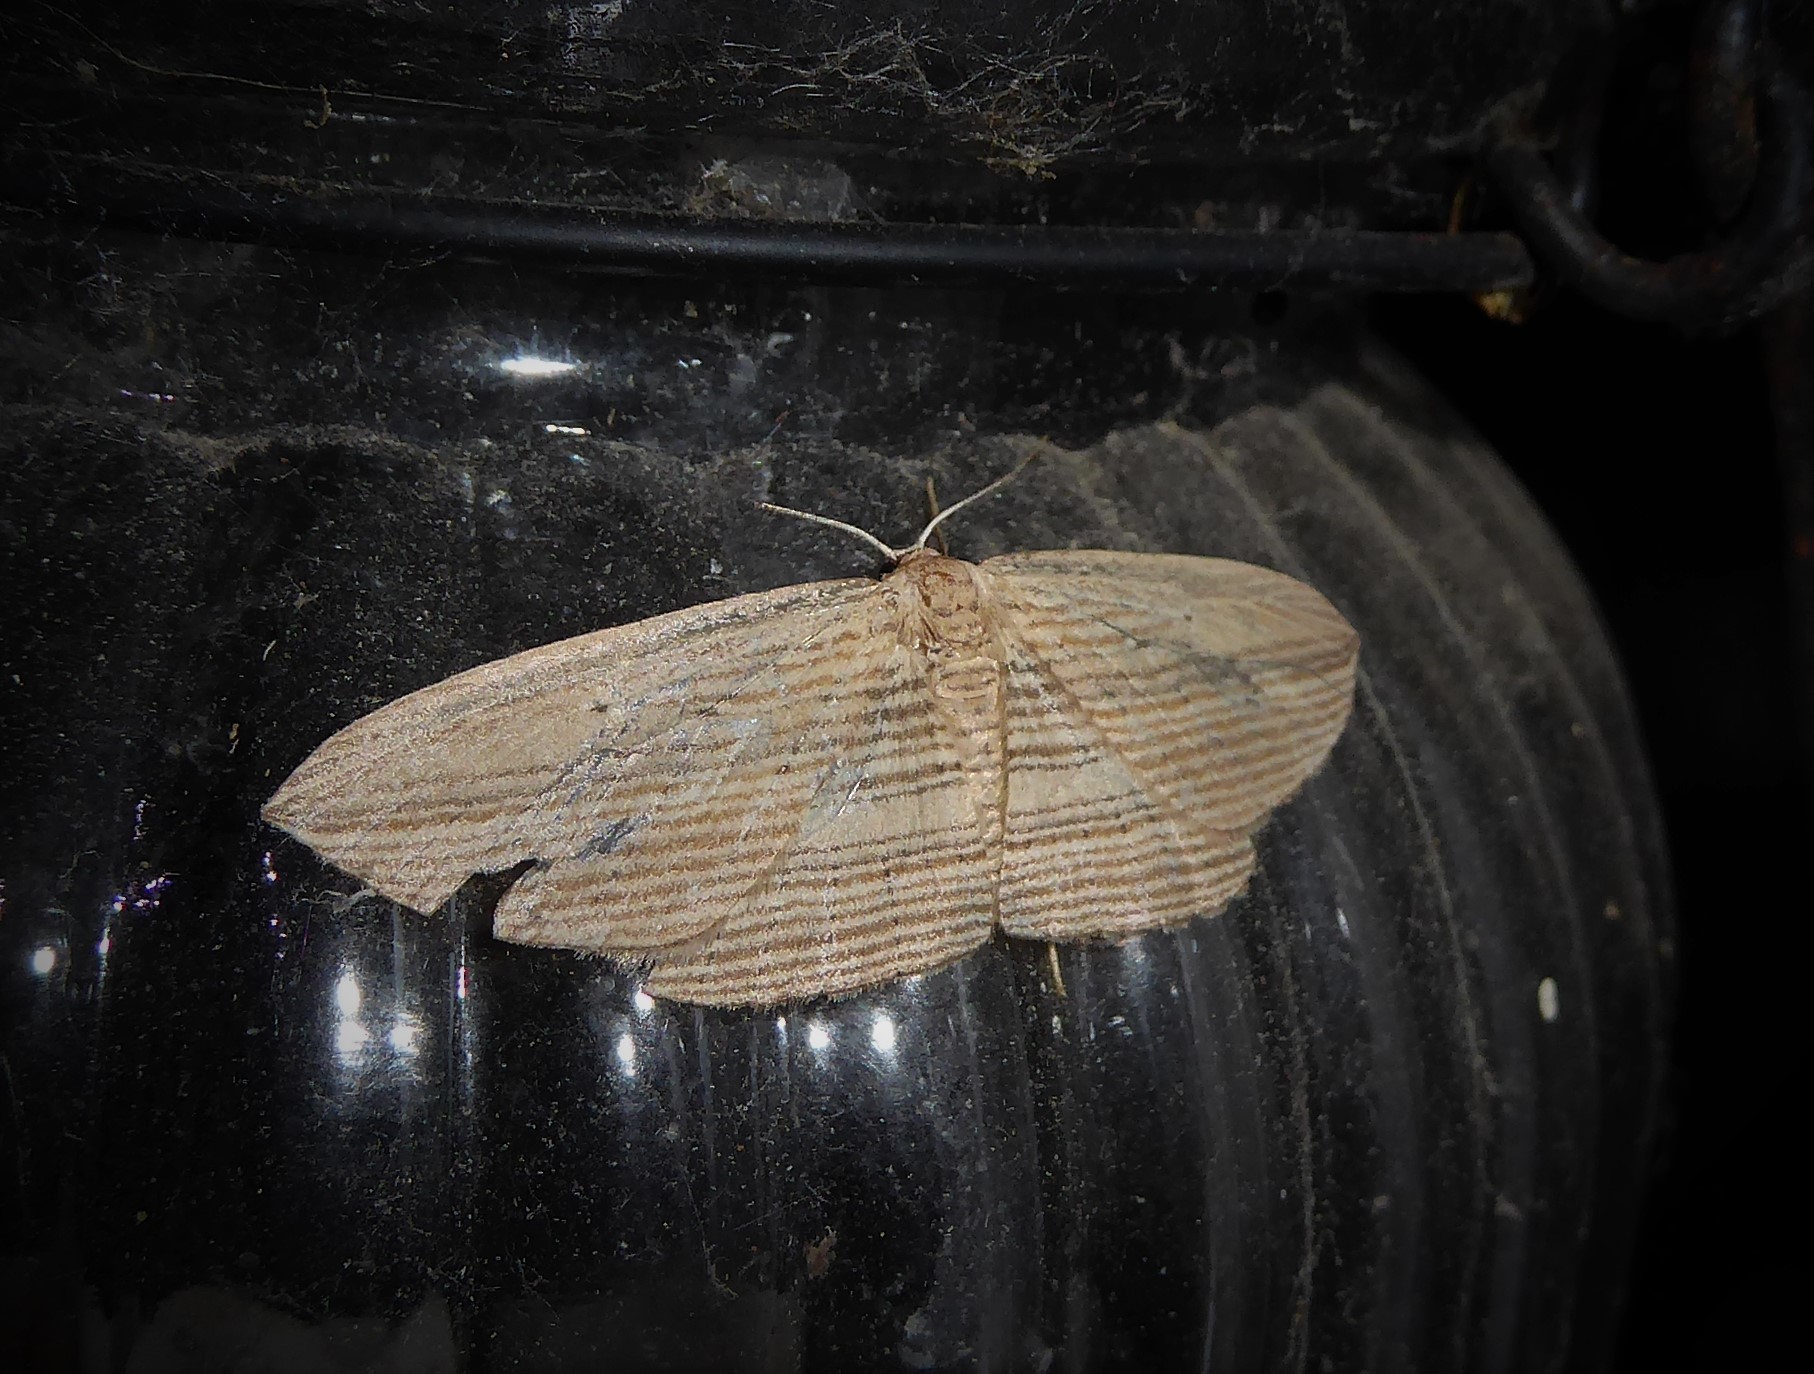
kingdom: Animalia
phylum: Arthropoda
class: Insecta
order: Lepidoptera
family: Geometridae
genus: Epiphryne
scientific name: Epiphryne verriculata
